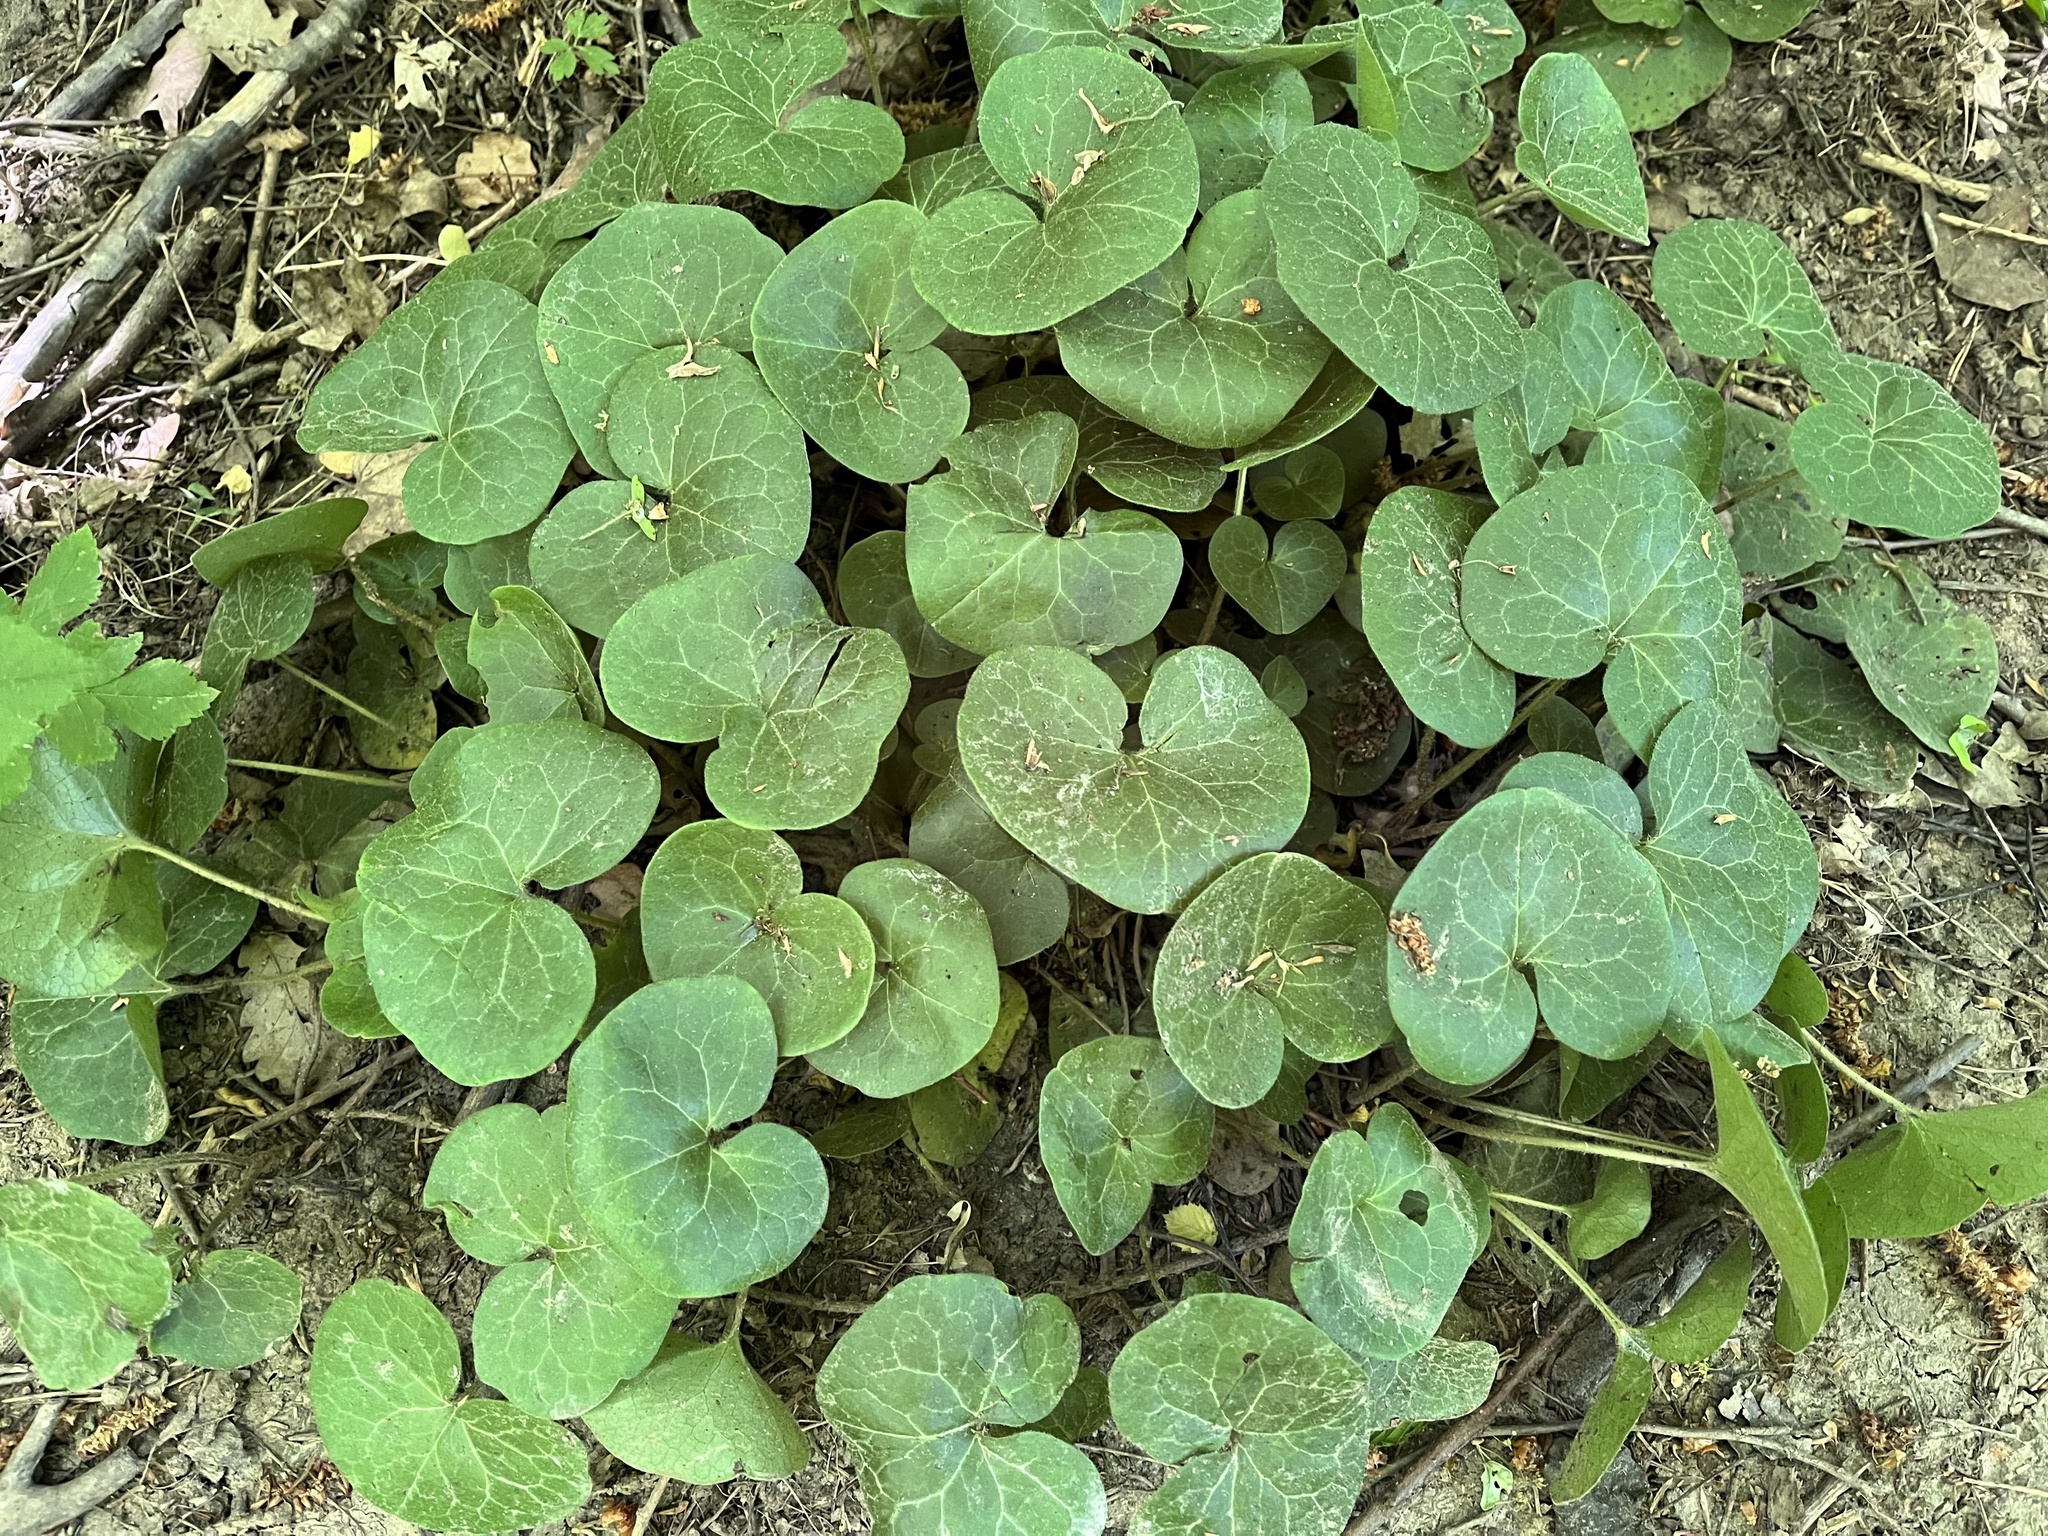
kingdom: Plantae
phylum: Tracheophyta
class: Magnoliopsida
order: Piperales
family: Aristolochiaceae
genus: Asarum
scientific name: Asarum europaeum
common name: Asarabacca
